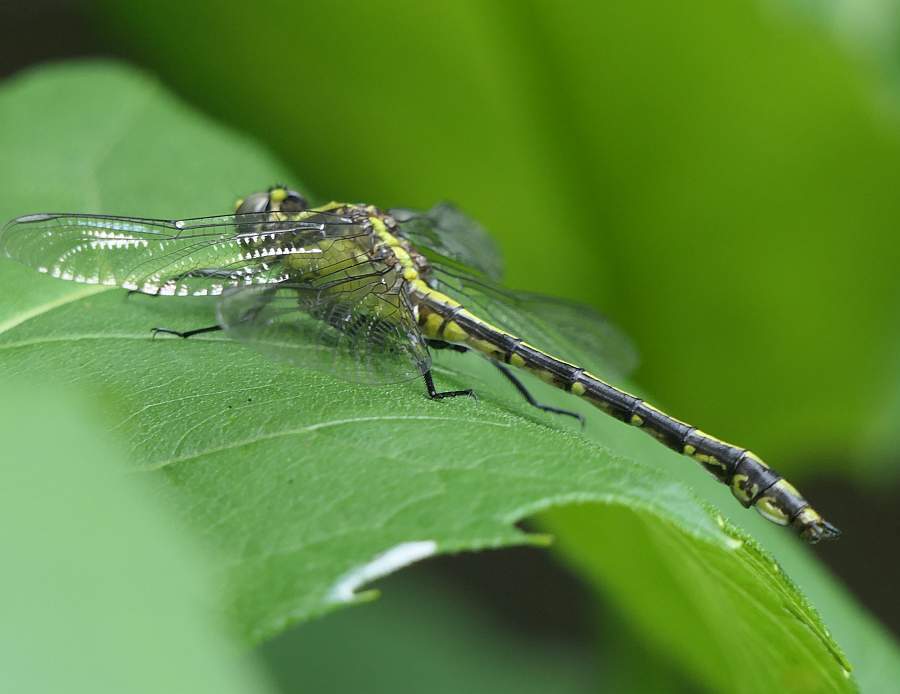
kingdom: Animalia
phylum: Arthropoda
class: Insecta
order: Odonata
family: Gomphidae
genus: Dromogomphus
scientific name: Dromogomphus spinosus
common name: Black-shouldered spinyleg
